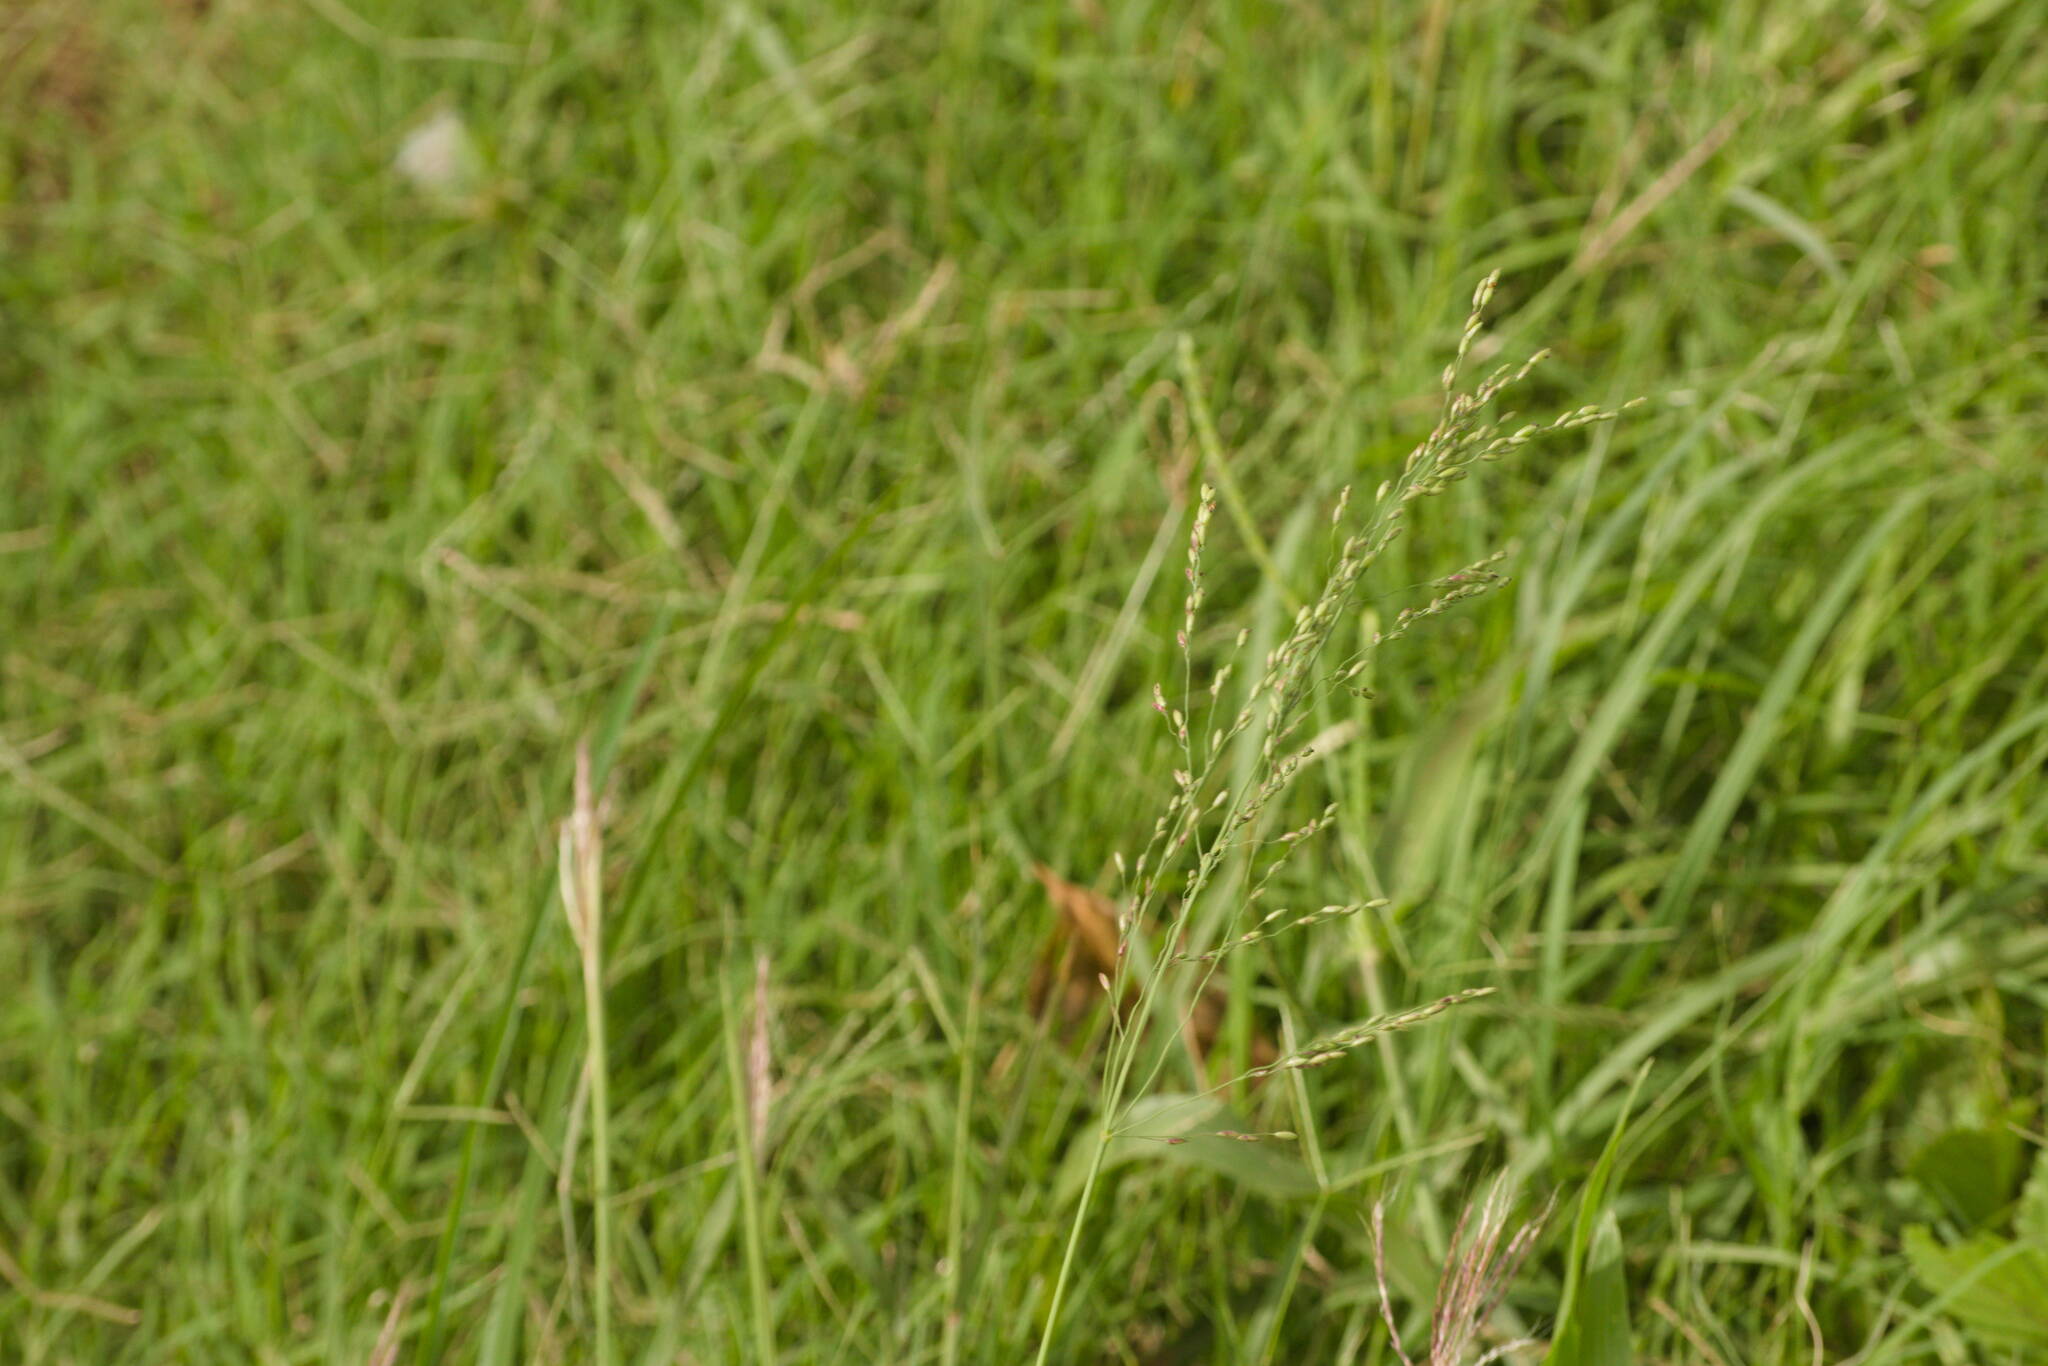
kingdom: Plantae
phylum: Tracheophyta
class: Liliopsida
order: Poales
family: Poaceae
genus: Megathyrsus
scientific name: Megathyrsus maximus
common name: Guineagrass
